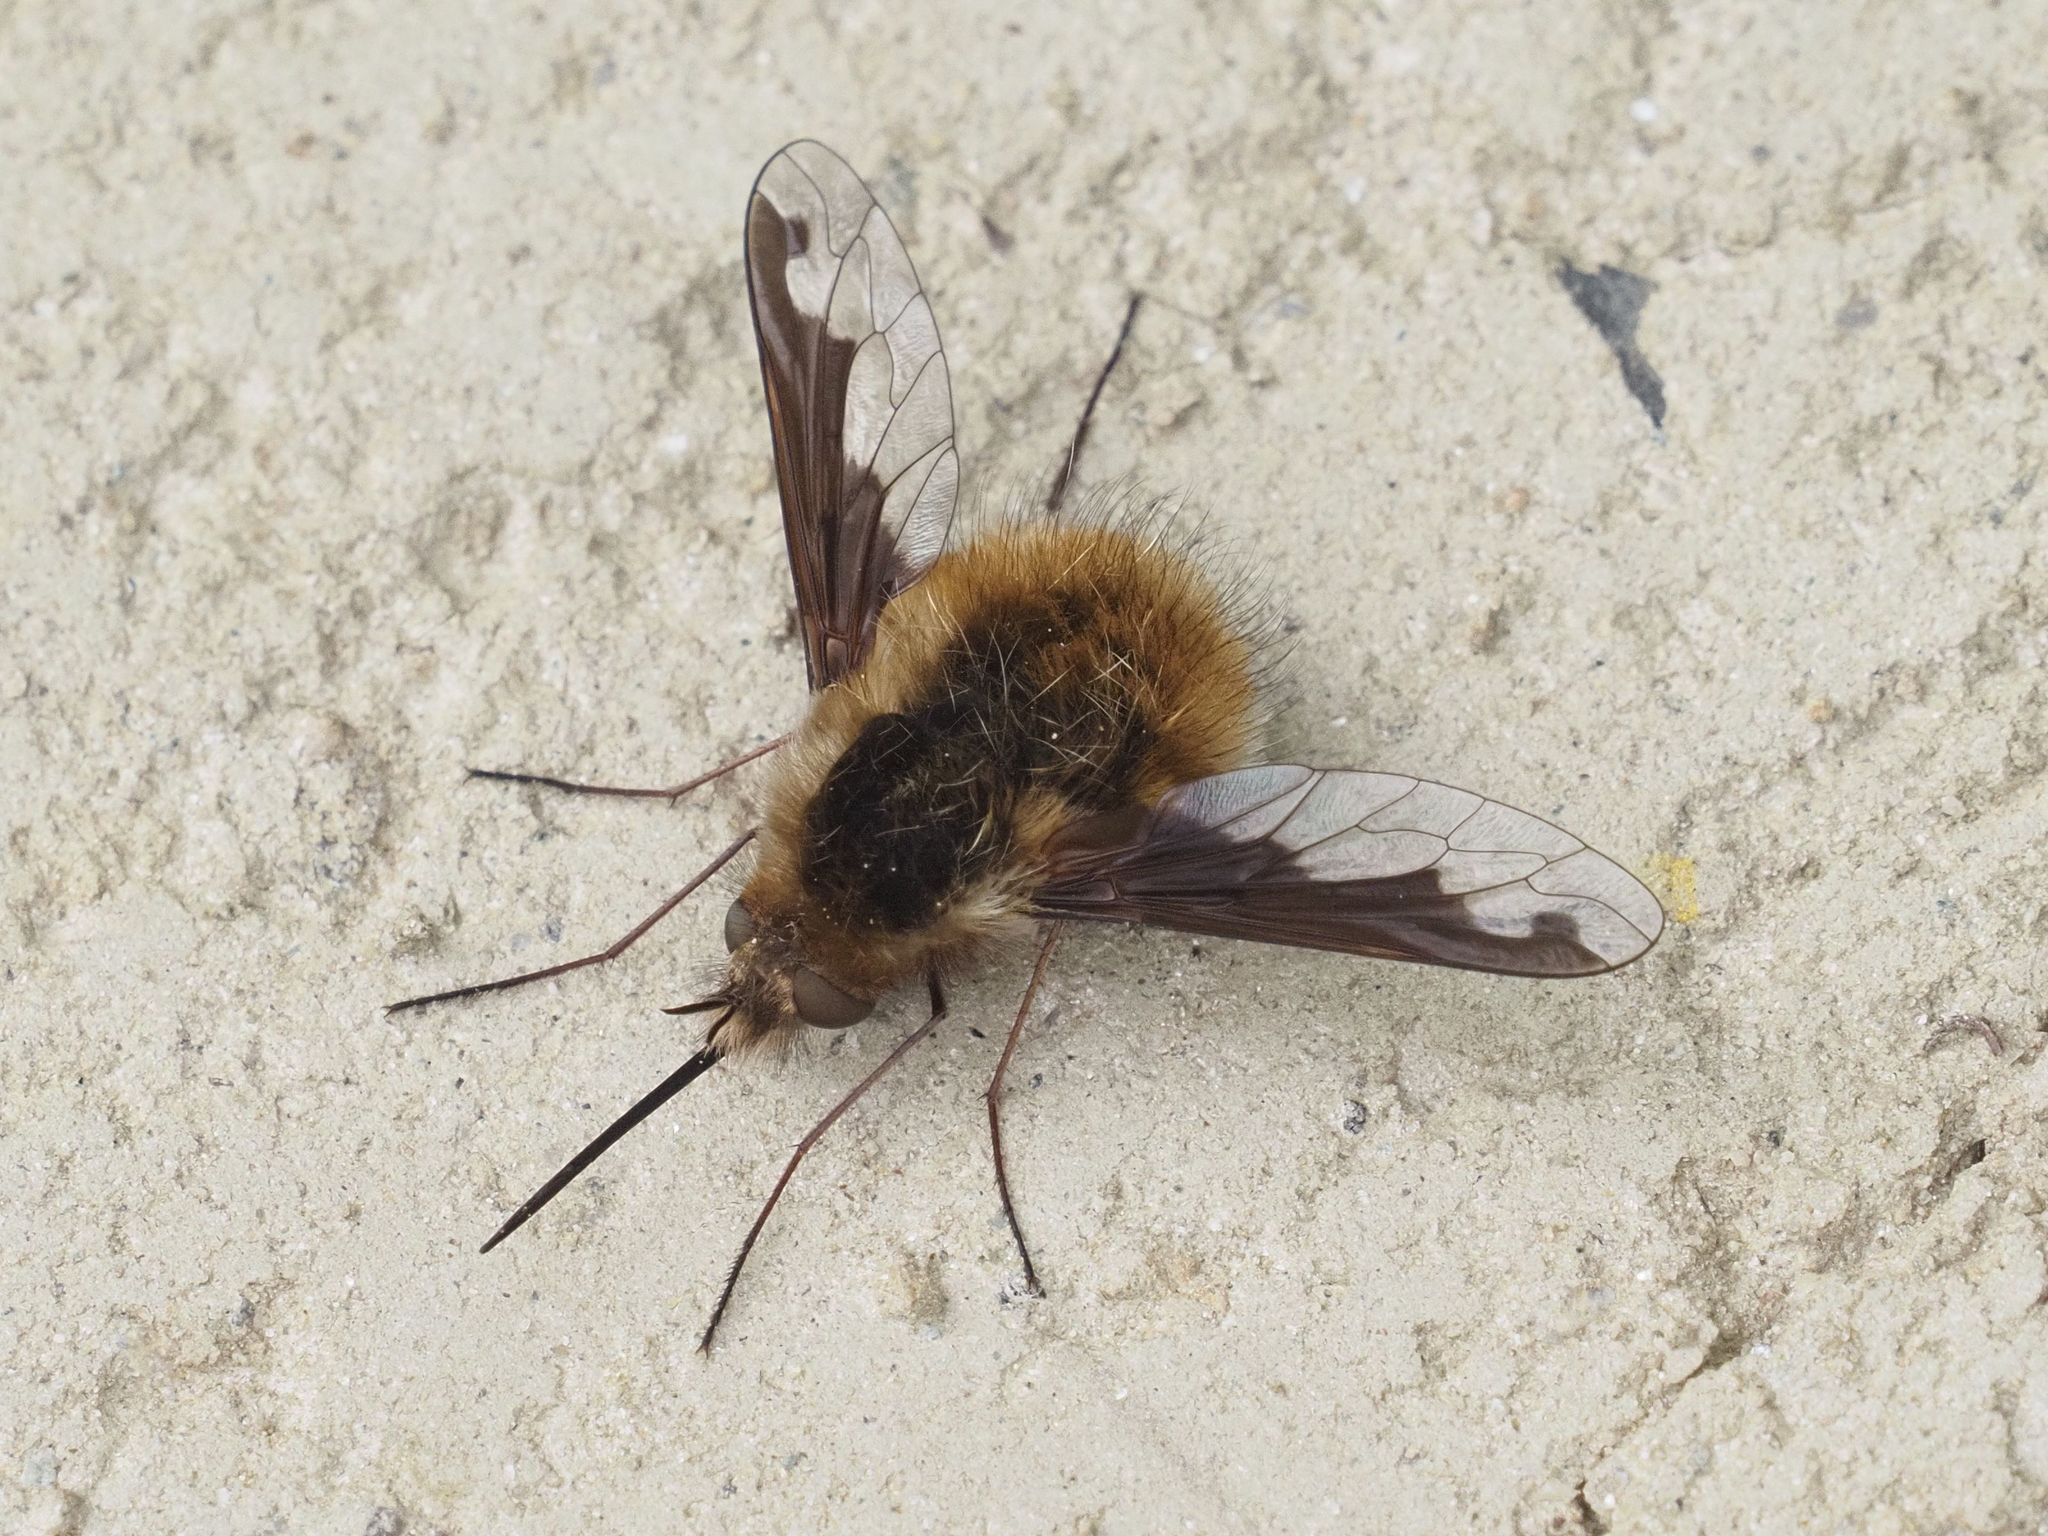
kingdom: Animalia
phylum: Arthropoda
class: Insecta
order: Diptera
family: Bombyliidae
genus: Bombylius
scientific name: Bombylius major
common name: Bee fly
